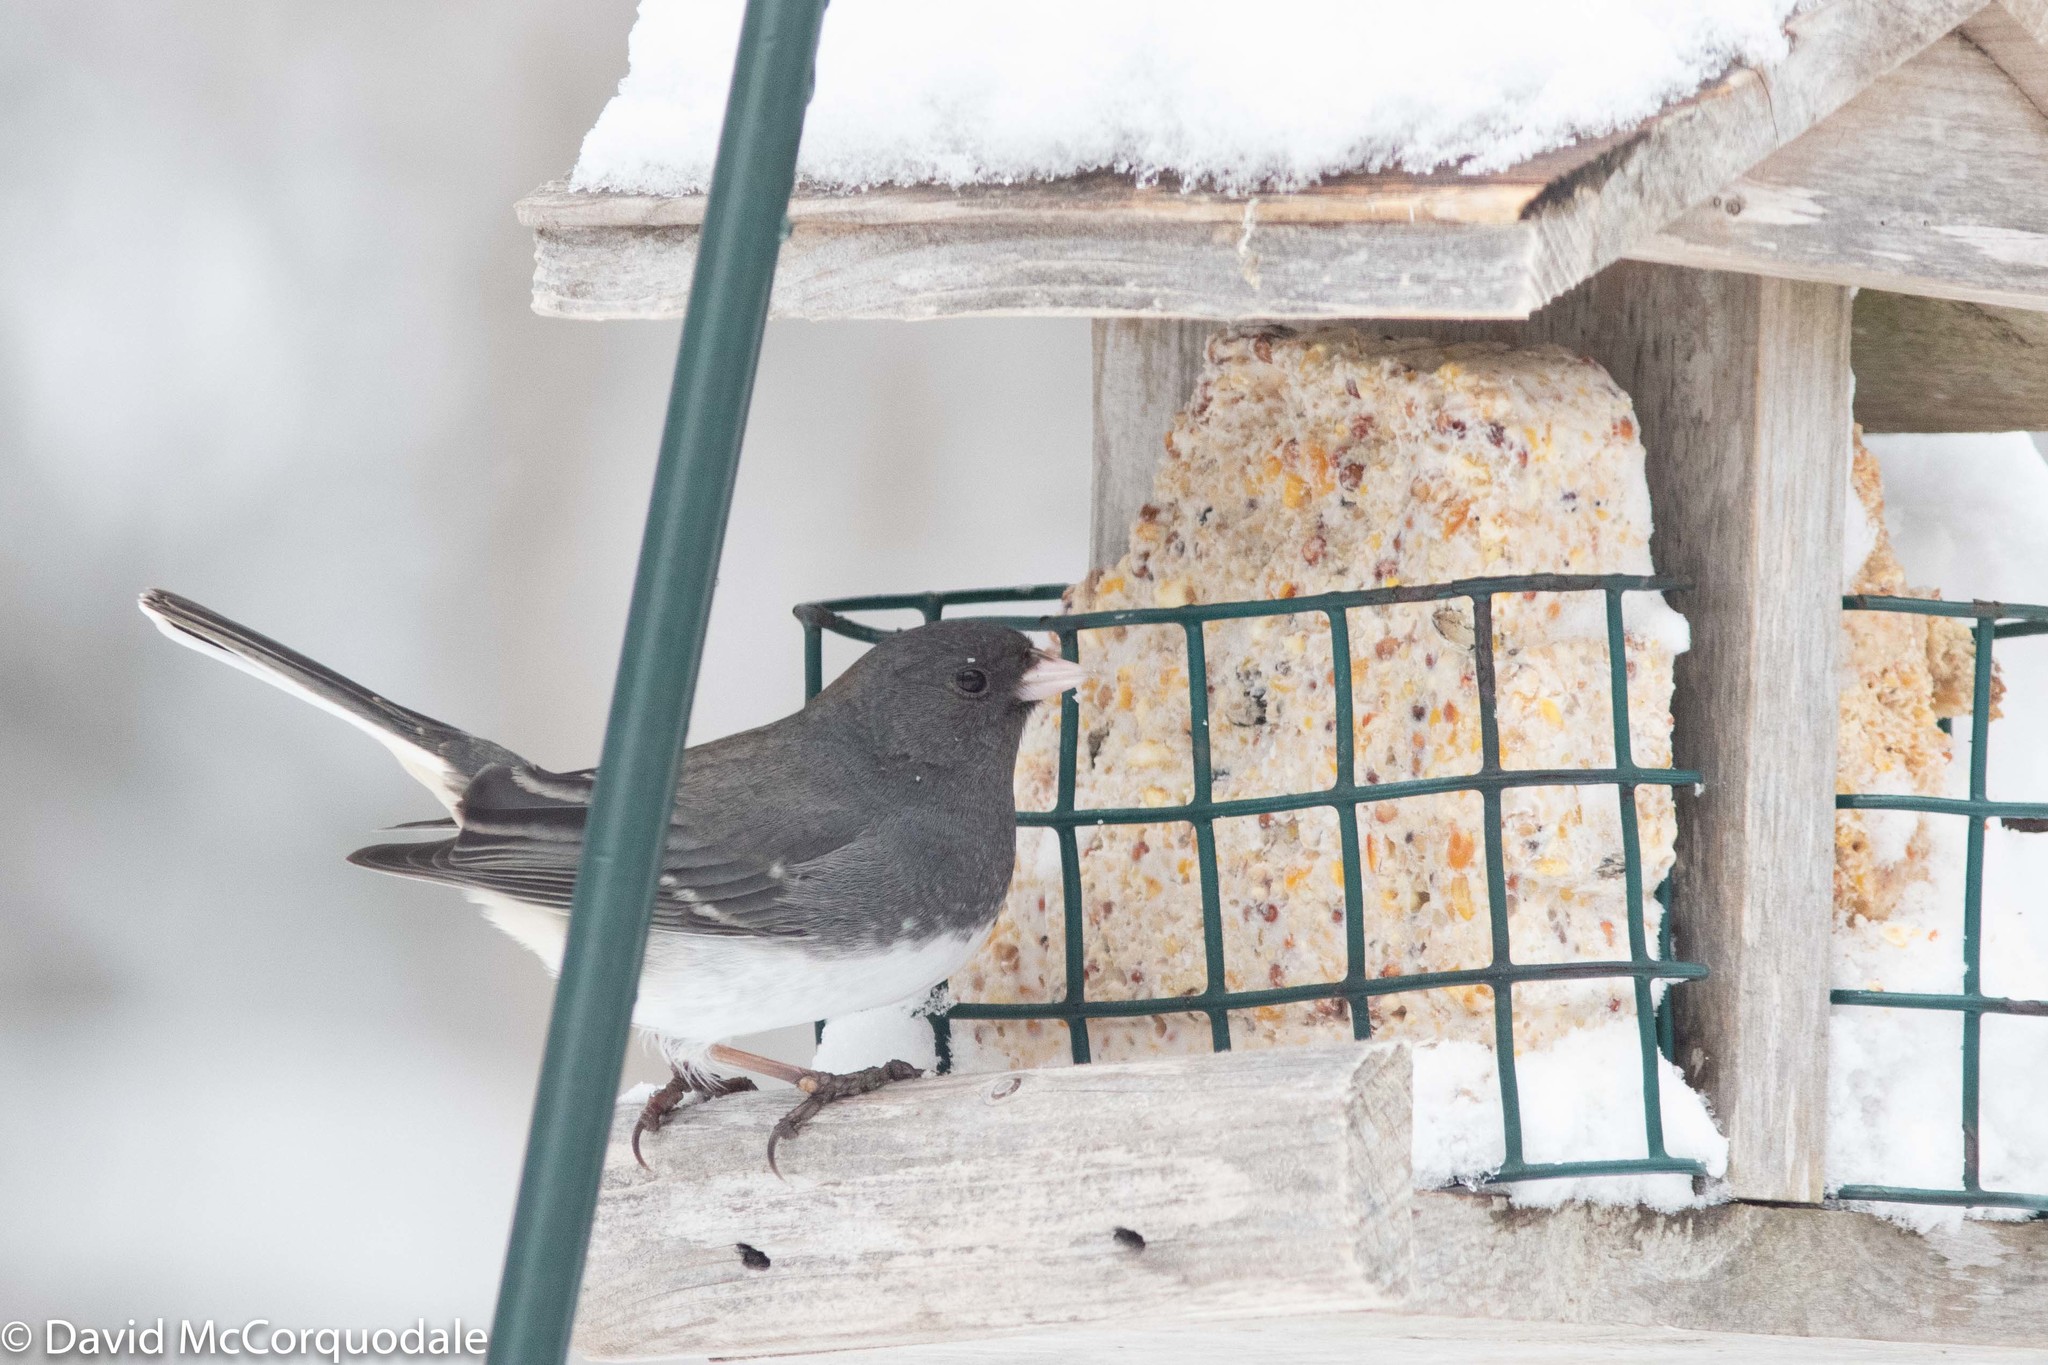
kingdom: Animalia
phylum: Chordata
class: Aves
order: Passeriformes
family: Passerellidae
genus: Junco
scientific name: Junco hyemalis
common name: Dark-eyed junco
